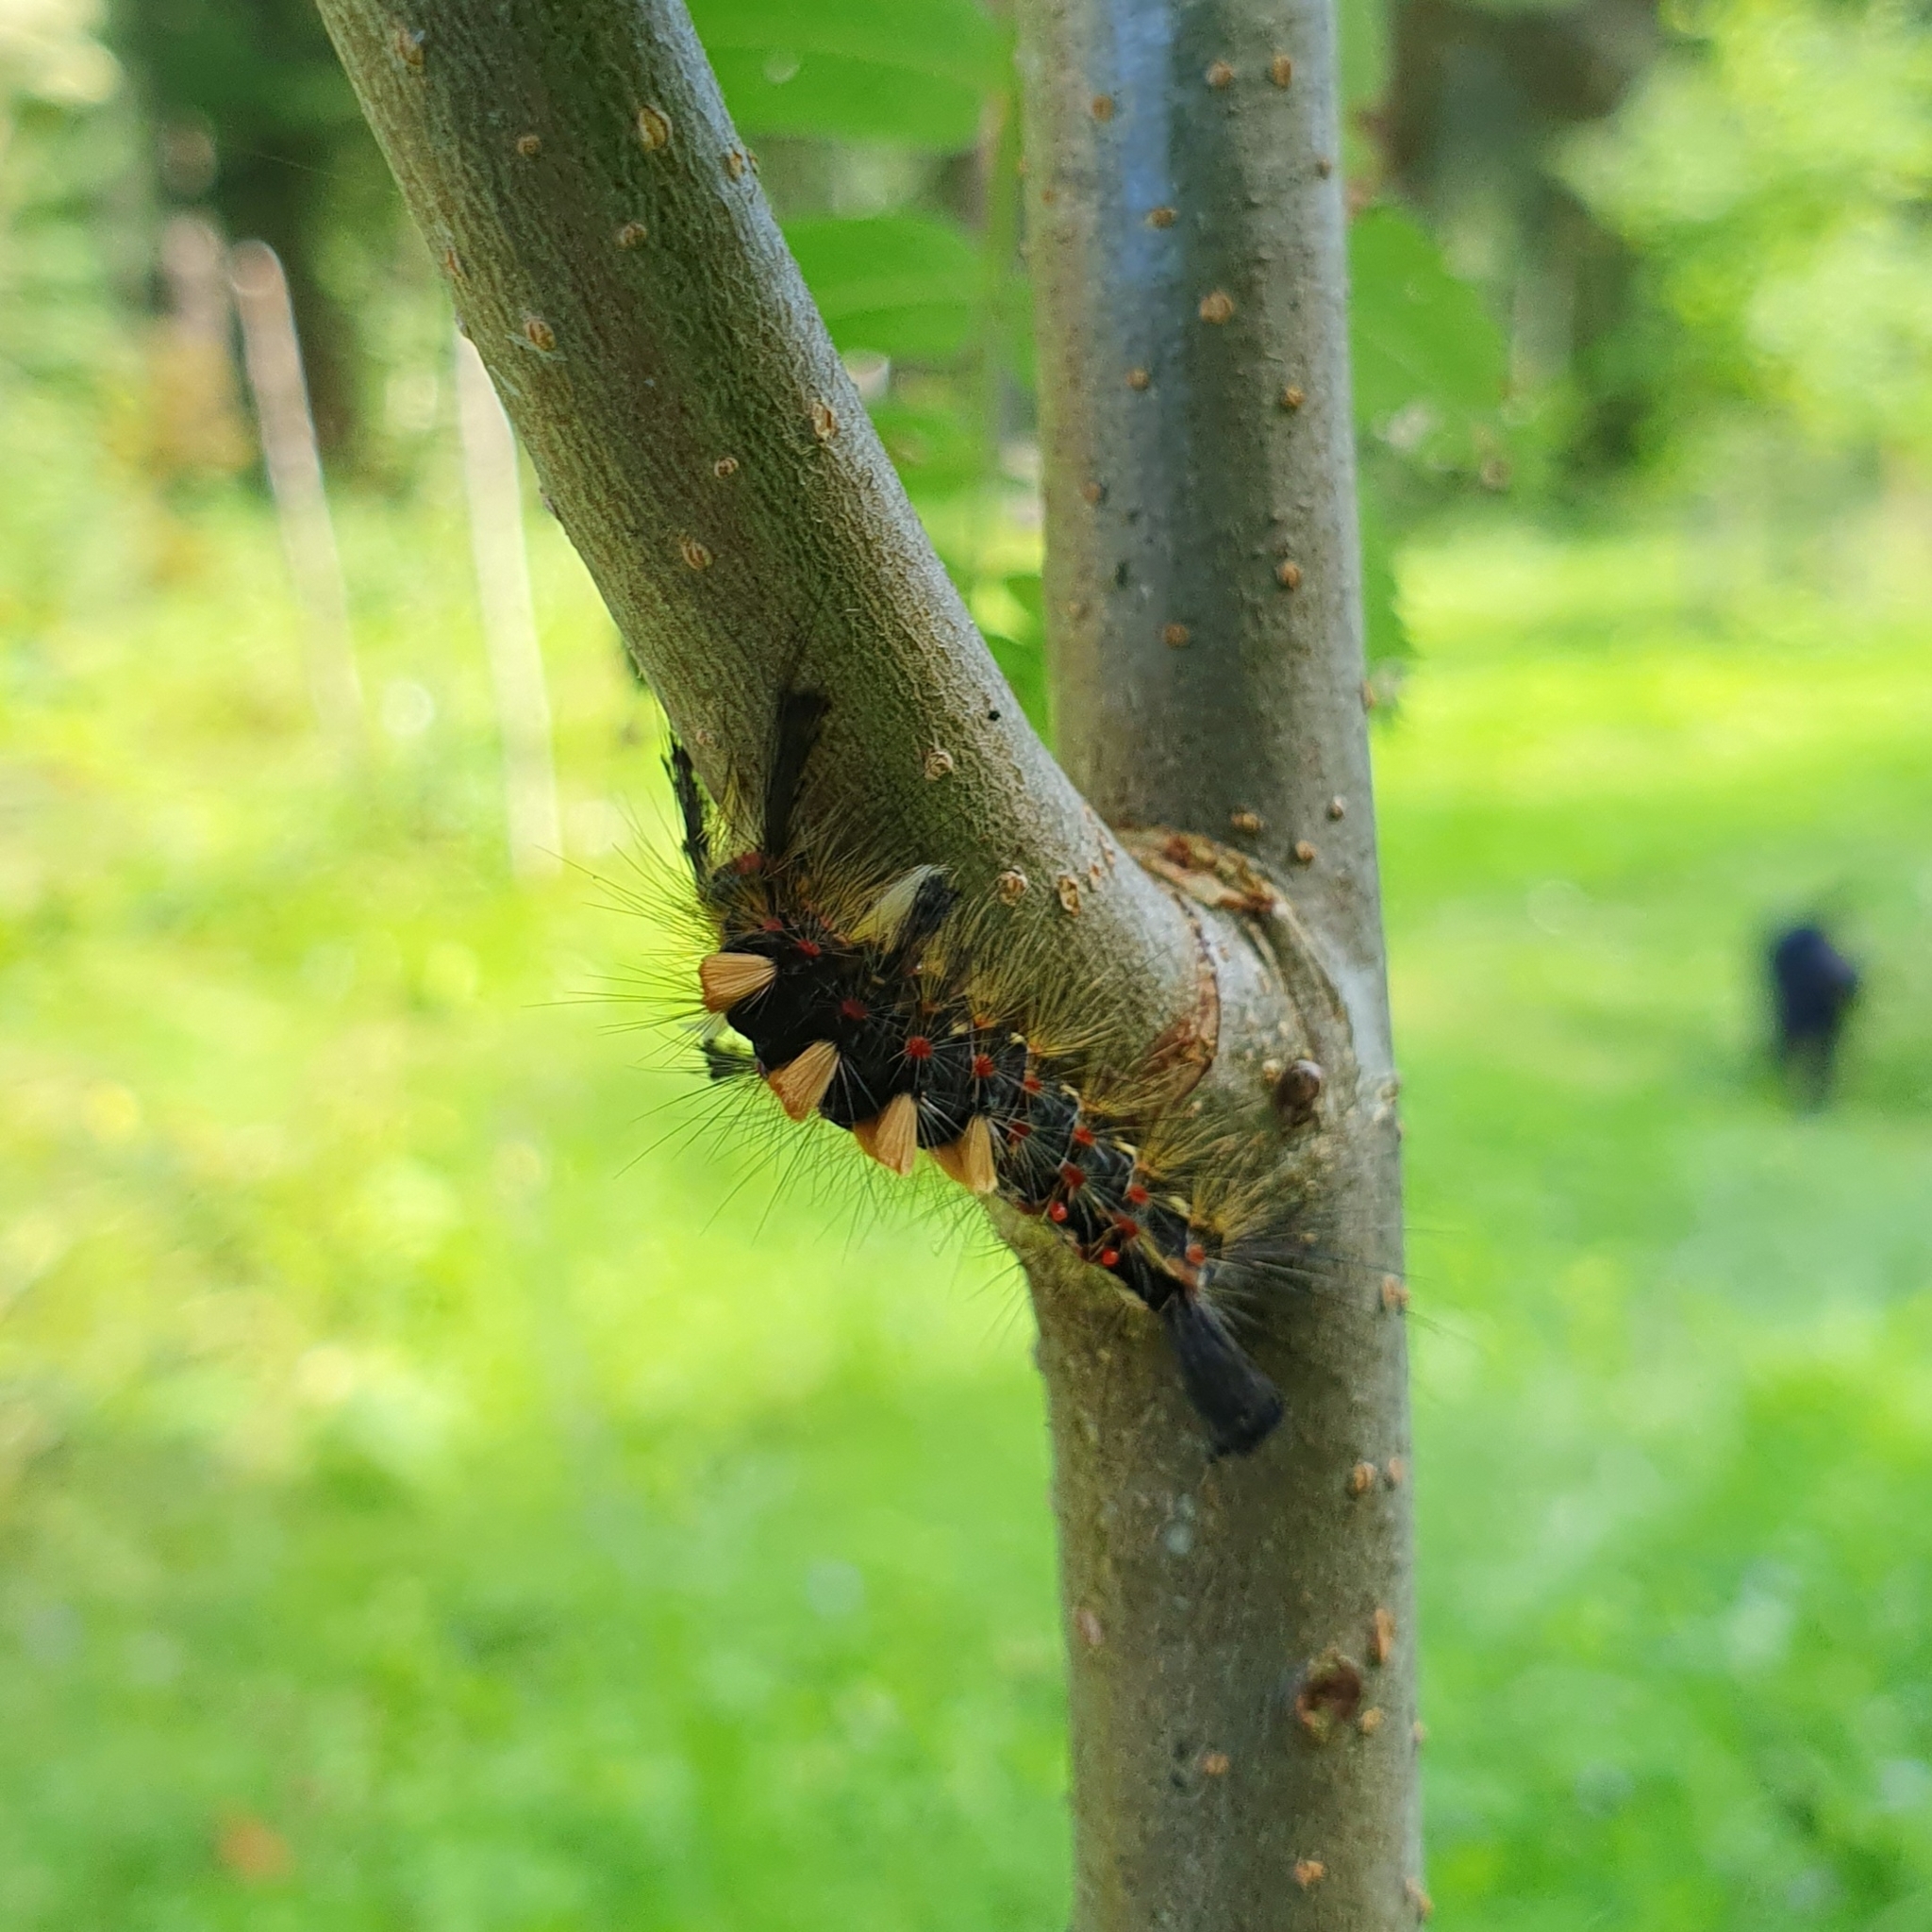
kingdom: Animalia
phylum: Arthropoda
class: Insecta
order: Lepidoptera
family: Erebidae
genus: Orgyia
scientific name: Orgyia antiqua
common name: Vapourer
